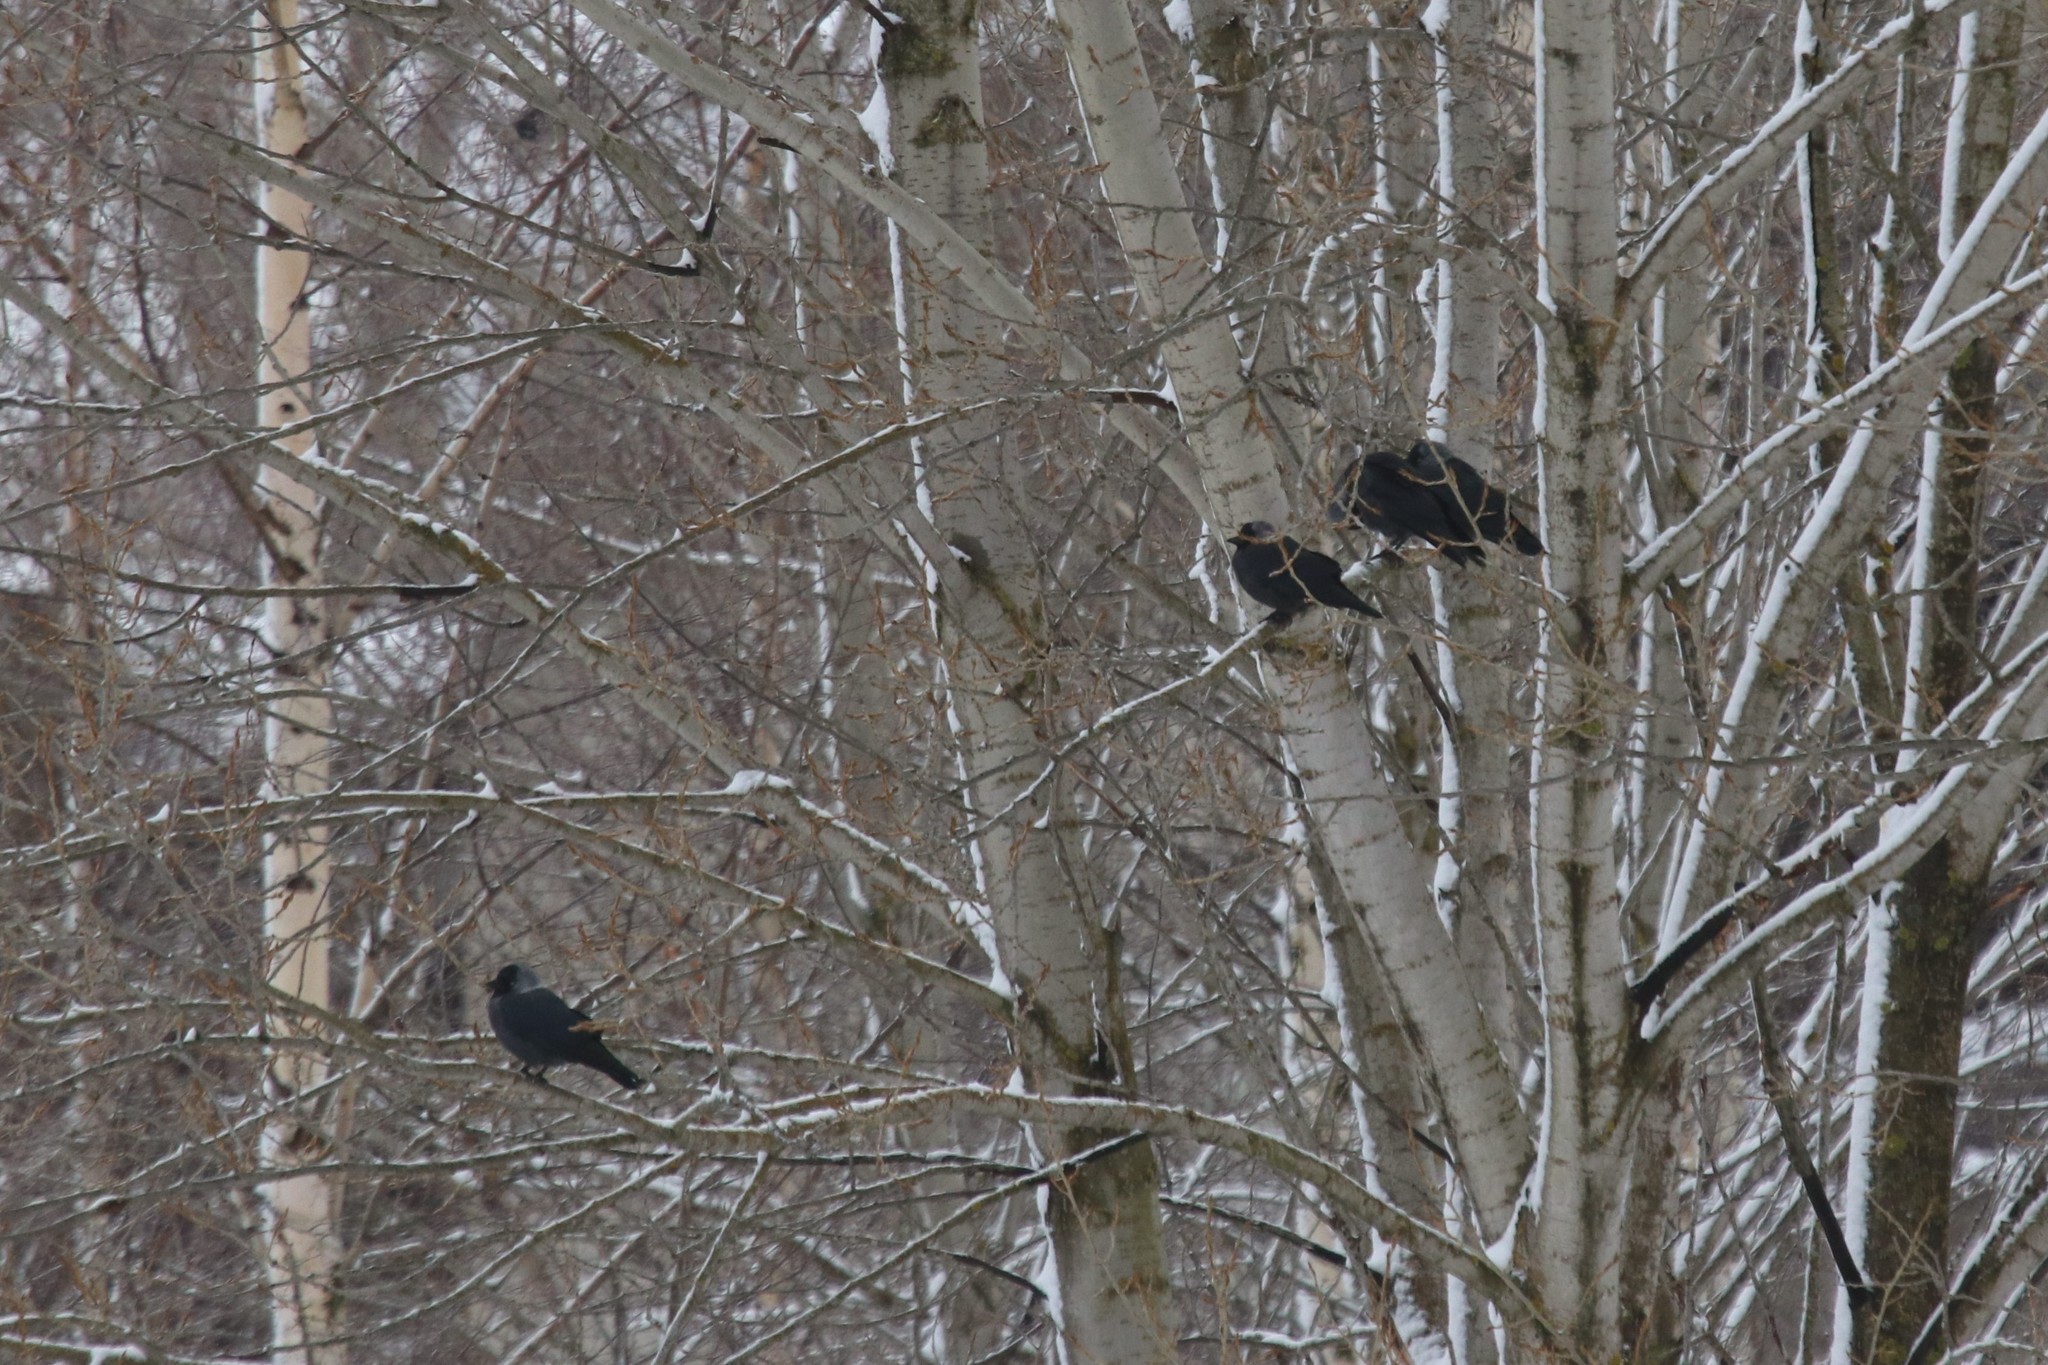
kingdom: Animalia
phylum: Chordata
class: Aves
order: Passeriformes
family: Corvidae
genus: Coloeus
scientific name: Coloeus monedula
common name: Western jackdaw
